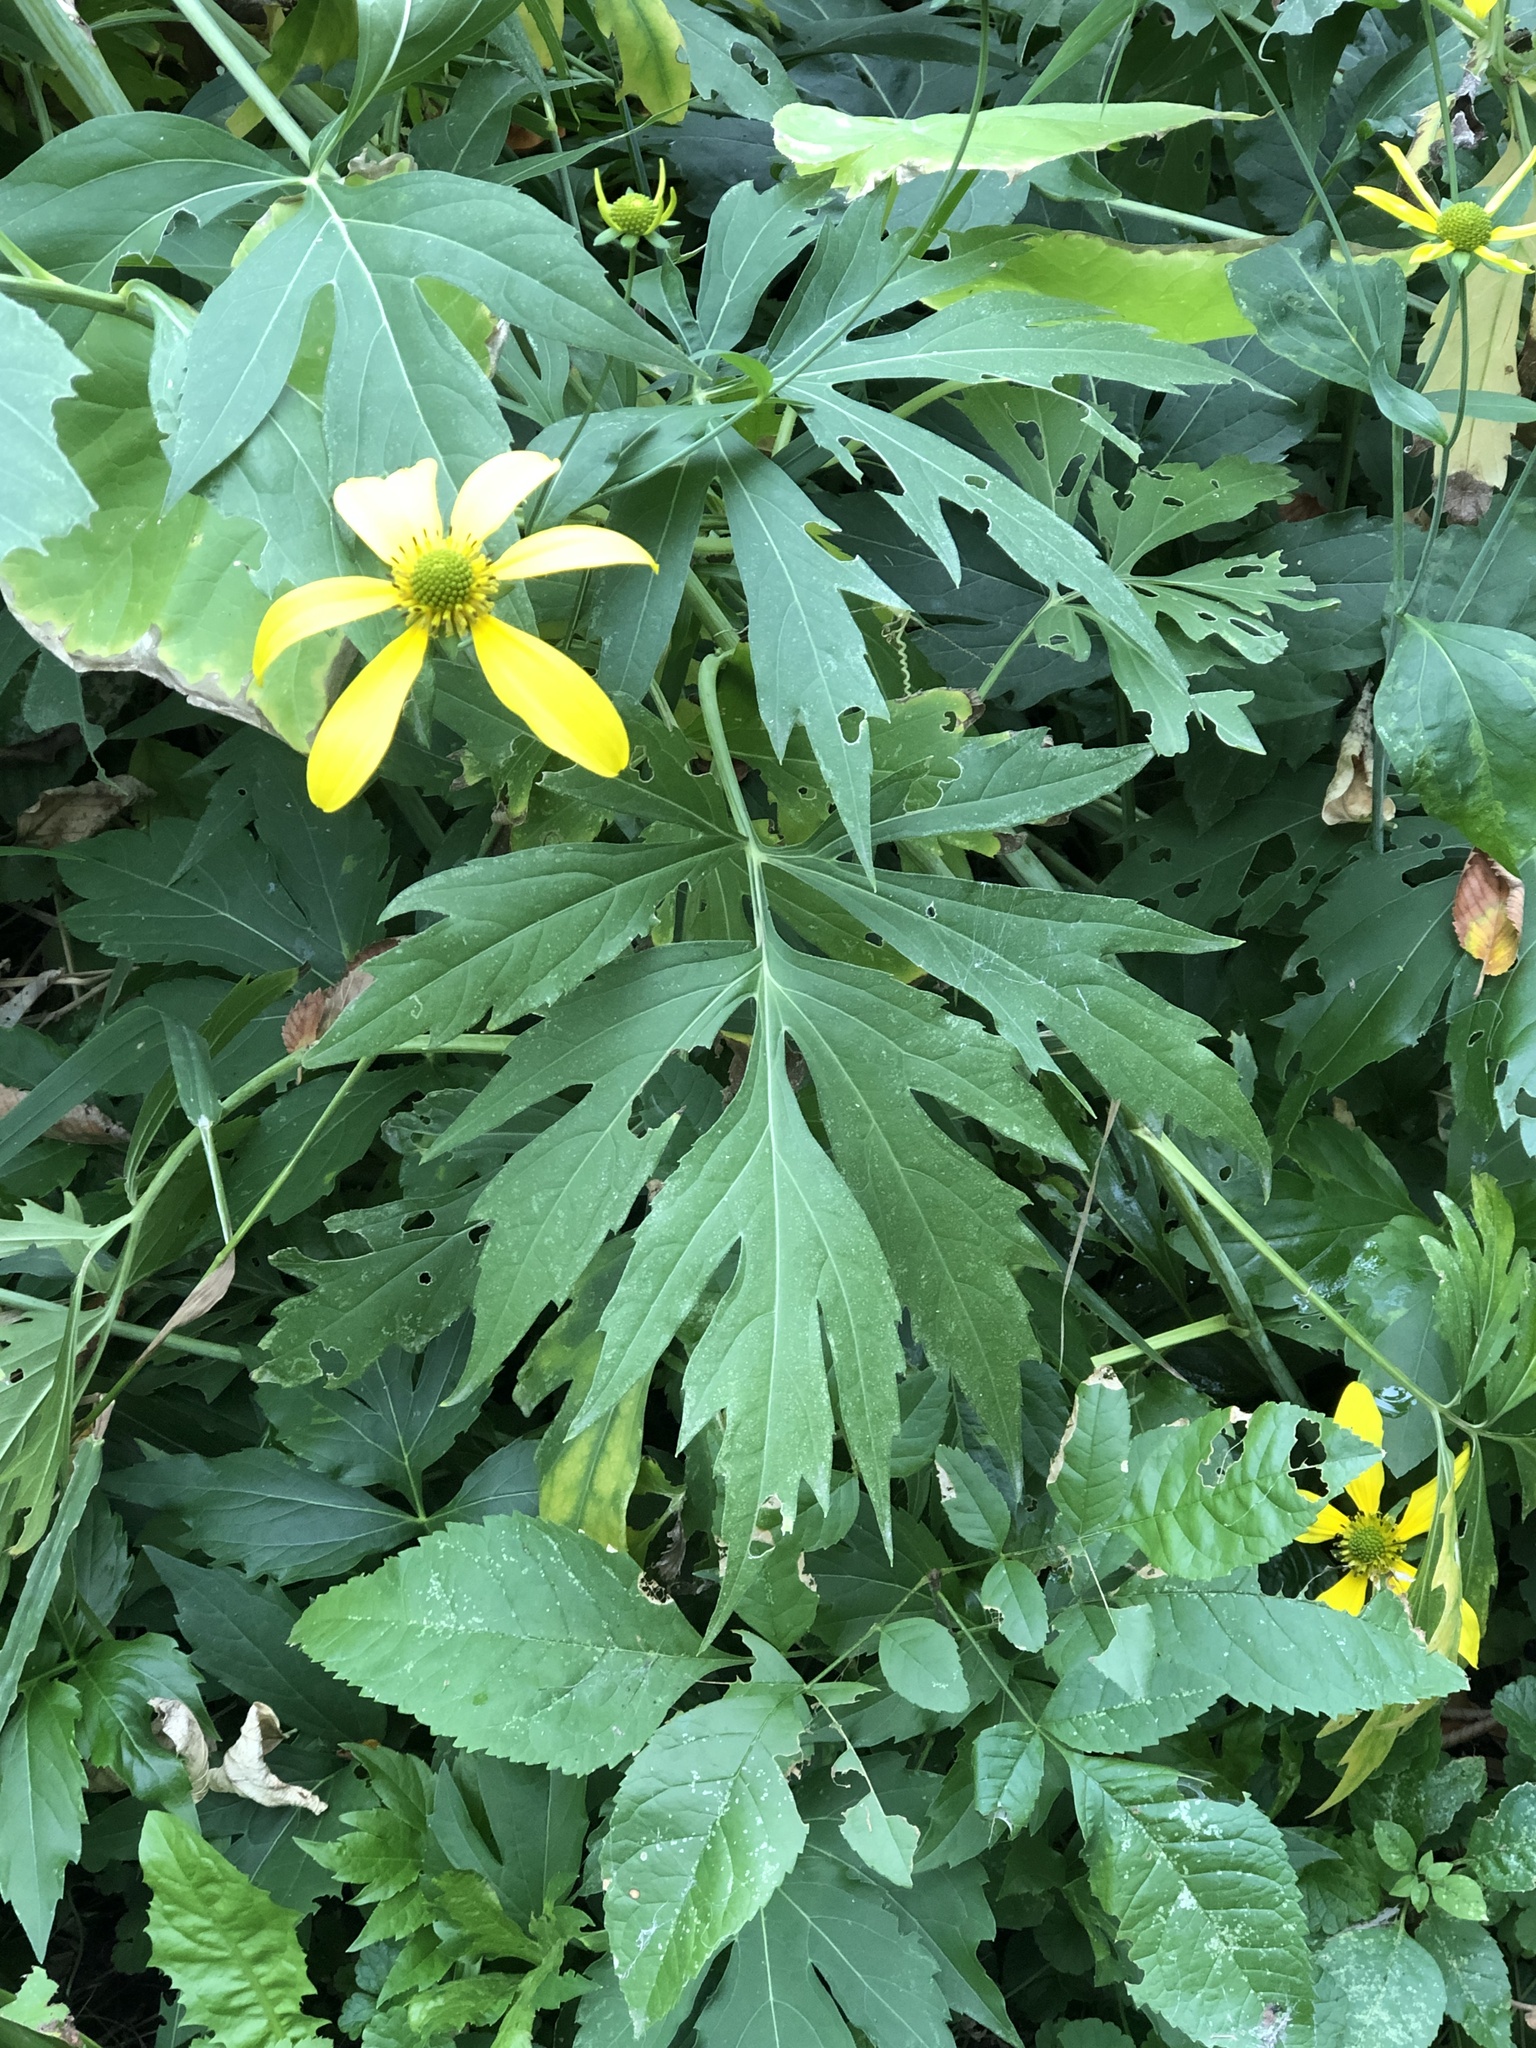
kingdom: Plantae
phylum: Tracheophyta
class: Magnoliopsida
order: Asterales
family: Asteraceae
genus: Rudbeckia
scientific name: Rudbeckia laciniata
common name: Coneflower
